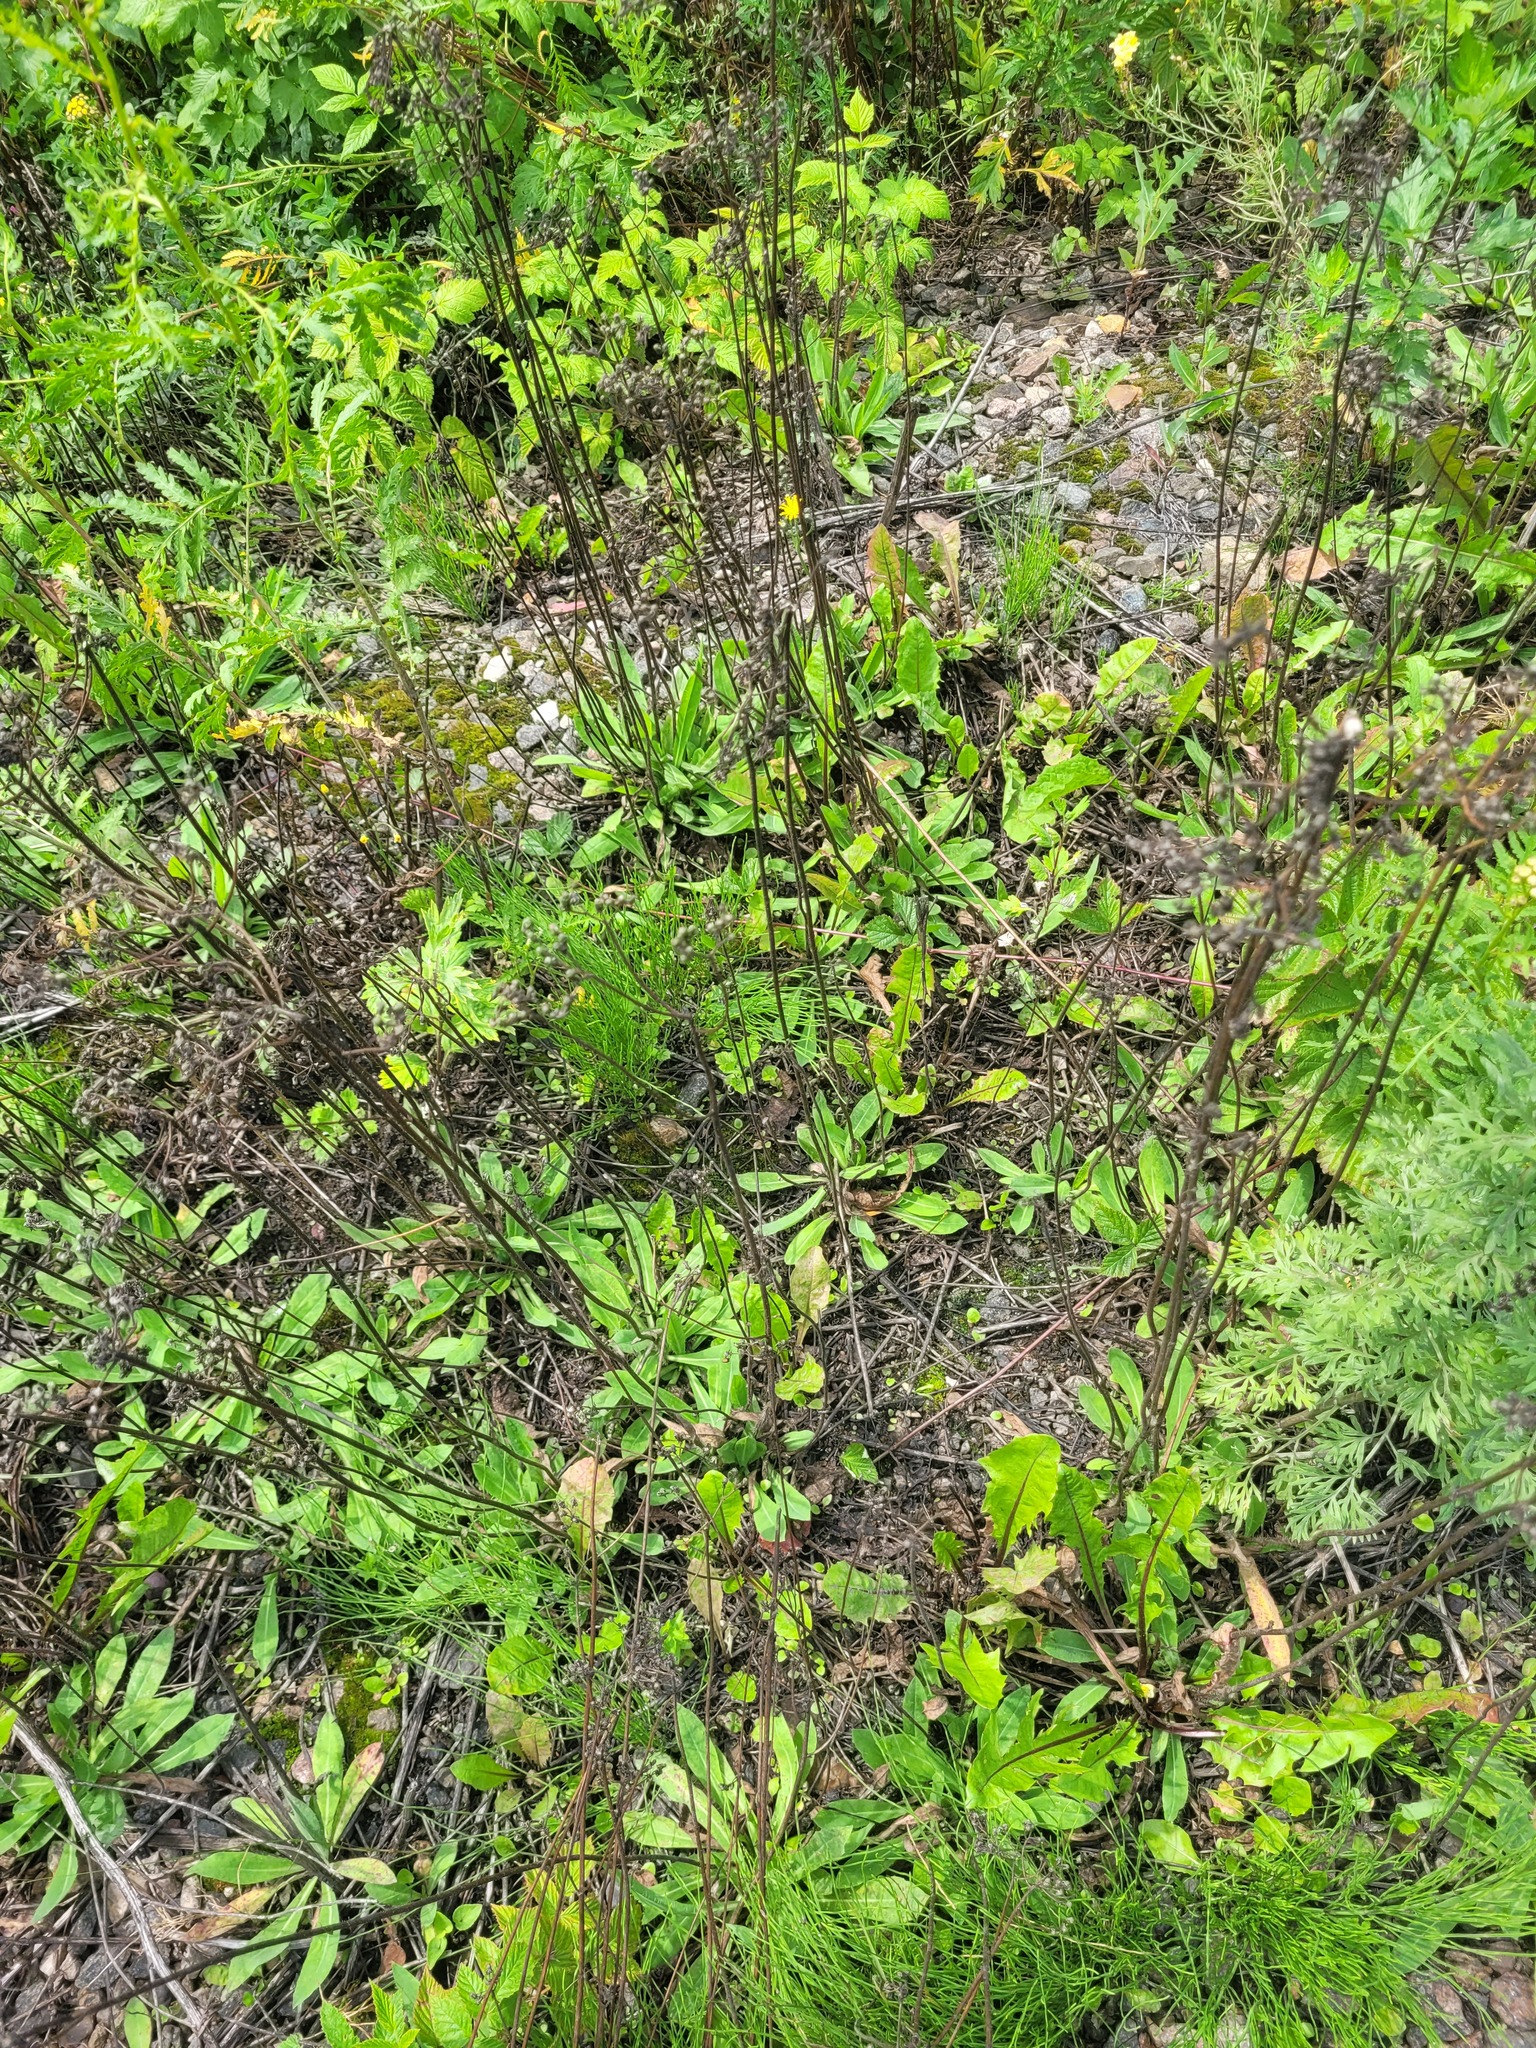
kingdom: Plantae
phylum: Tracheophyta
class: Magnoliopsida
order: Asterales
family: Asteraceae
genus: Pilosella
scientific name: Pilosella
